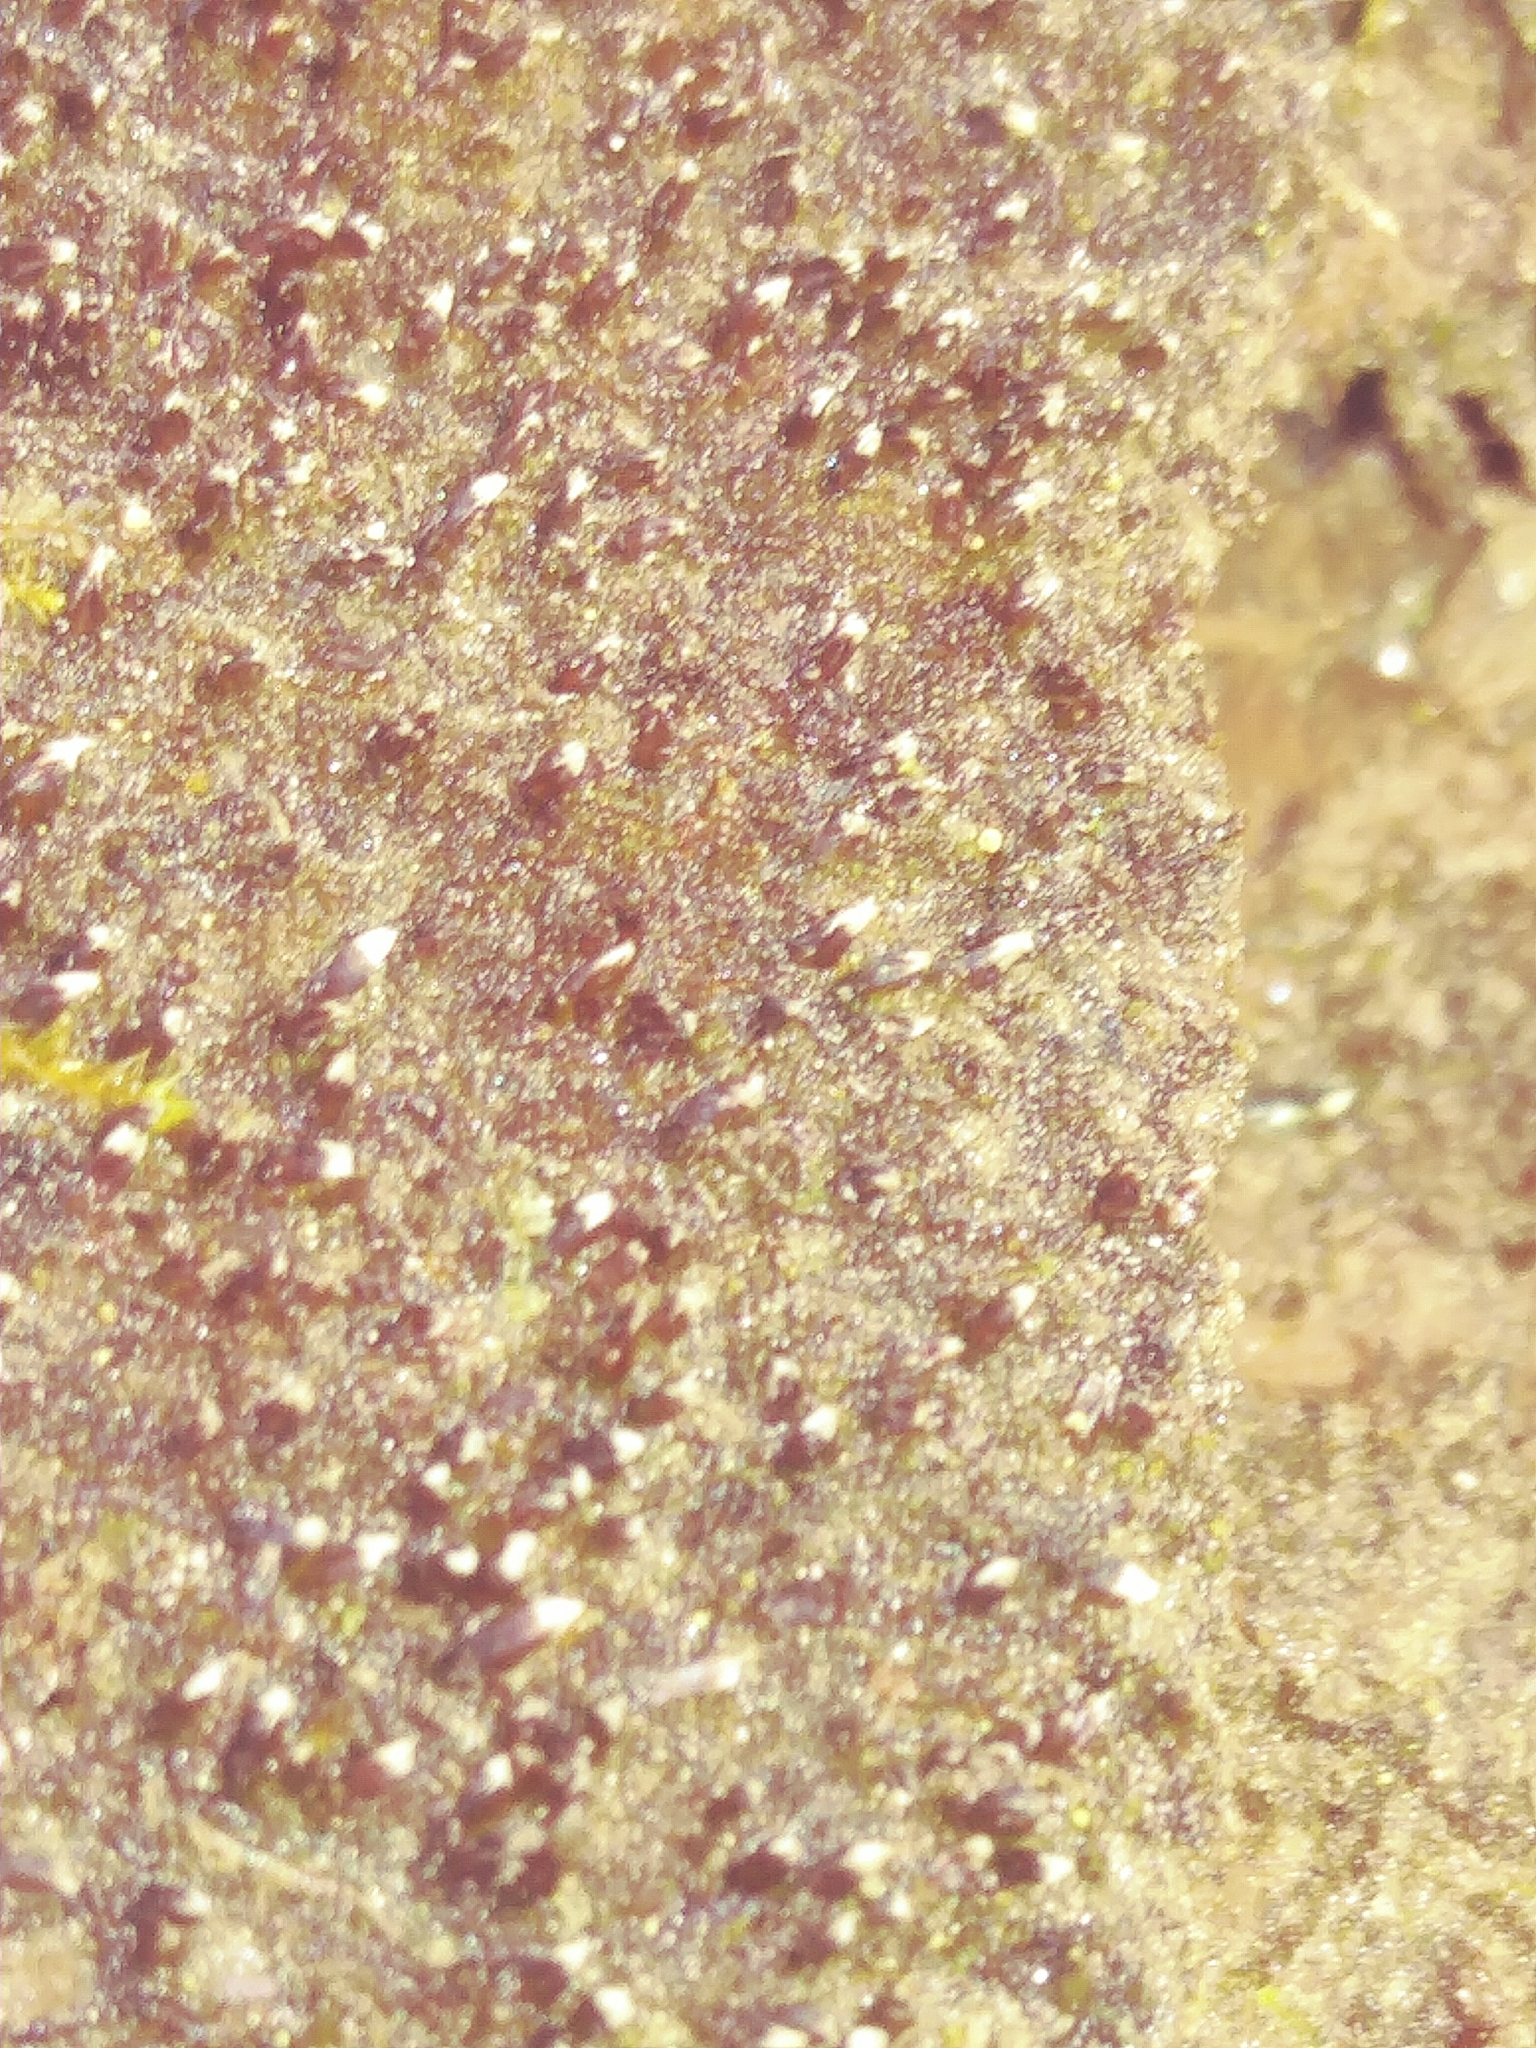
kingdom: Plantae
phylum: Marchantiophyta
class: Jungermanniopsida
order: Jungermanniales
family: Cephaloziaceae
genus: Nowellia
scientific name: Nowellia curvifolia
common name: Wood rustwort
